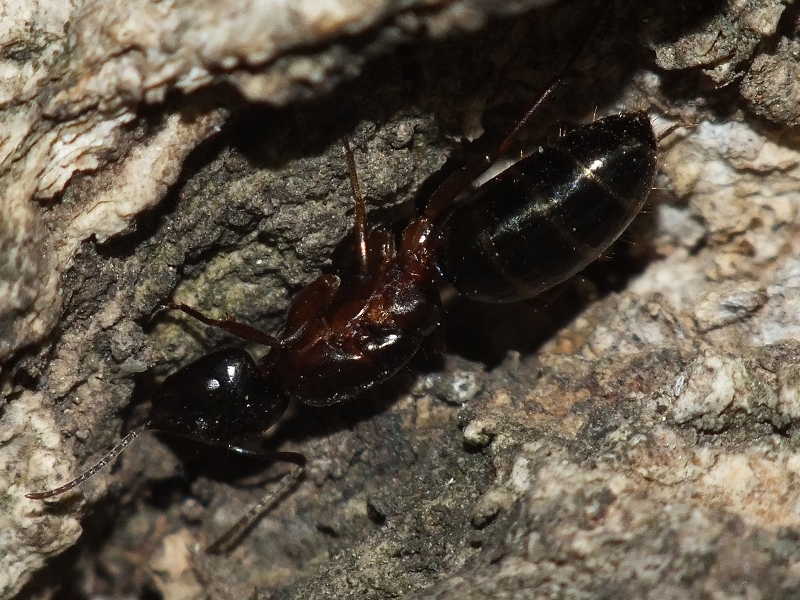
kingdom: Animalia
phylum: Arthropoda
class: Insecta
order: Hymenoptera
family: Formicidae
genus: Camponotus
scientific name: Camponotus fallax
